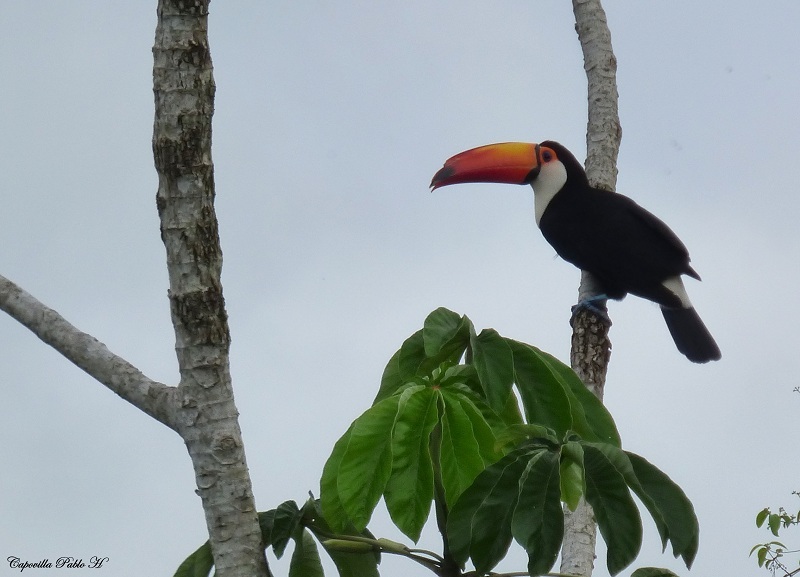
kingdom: Animalia
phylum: Chordata
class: Aves
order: Piciformes
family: Ramphastidae
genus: Ramphastos
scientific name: Ramphastos toco
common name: Toco toucan
